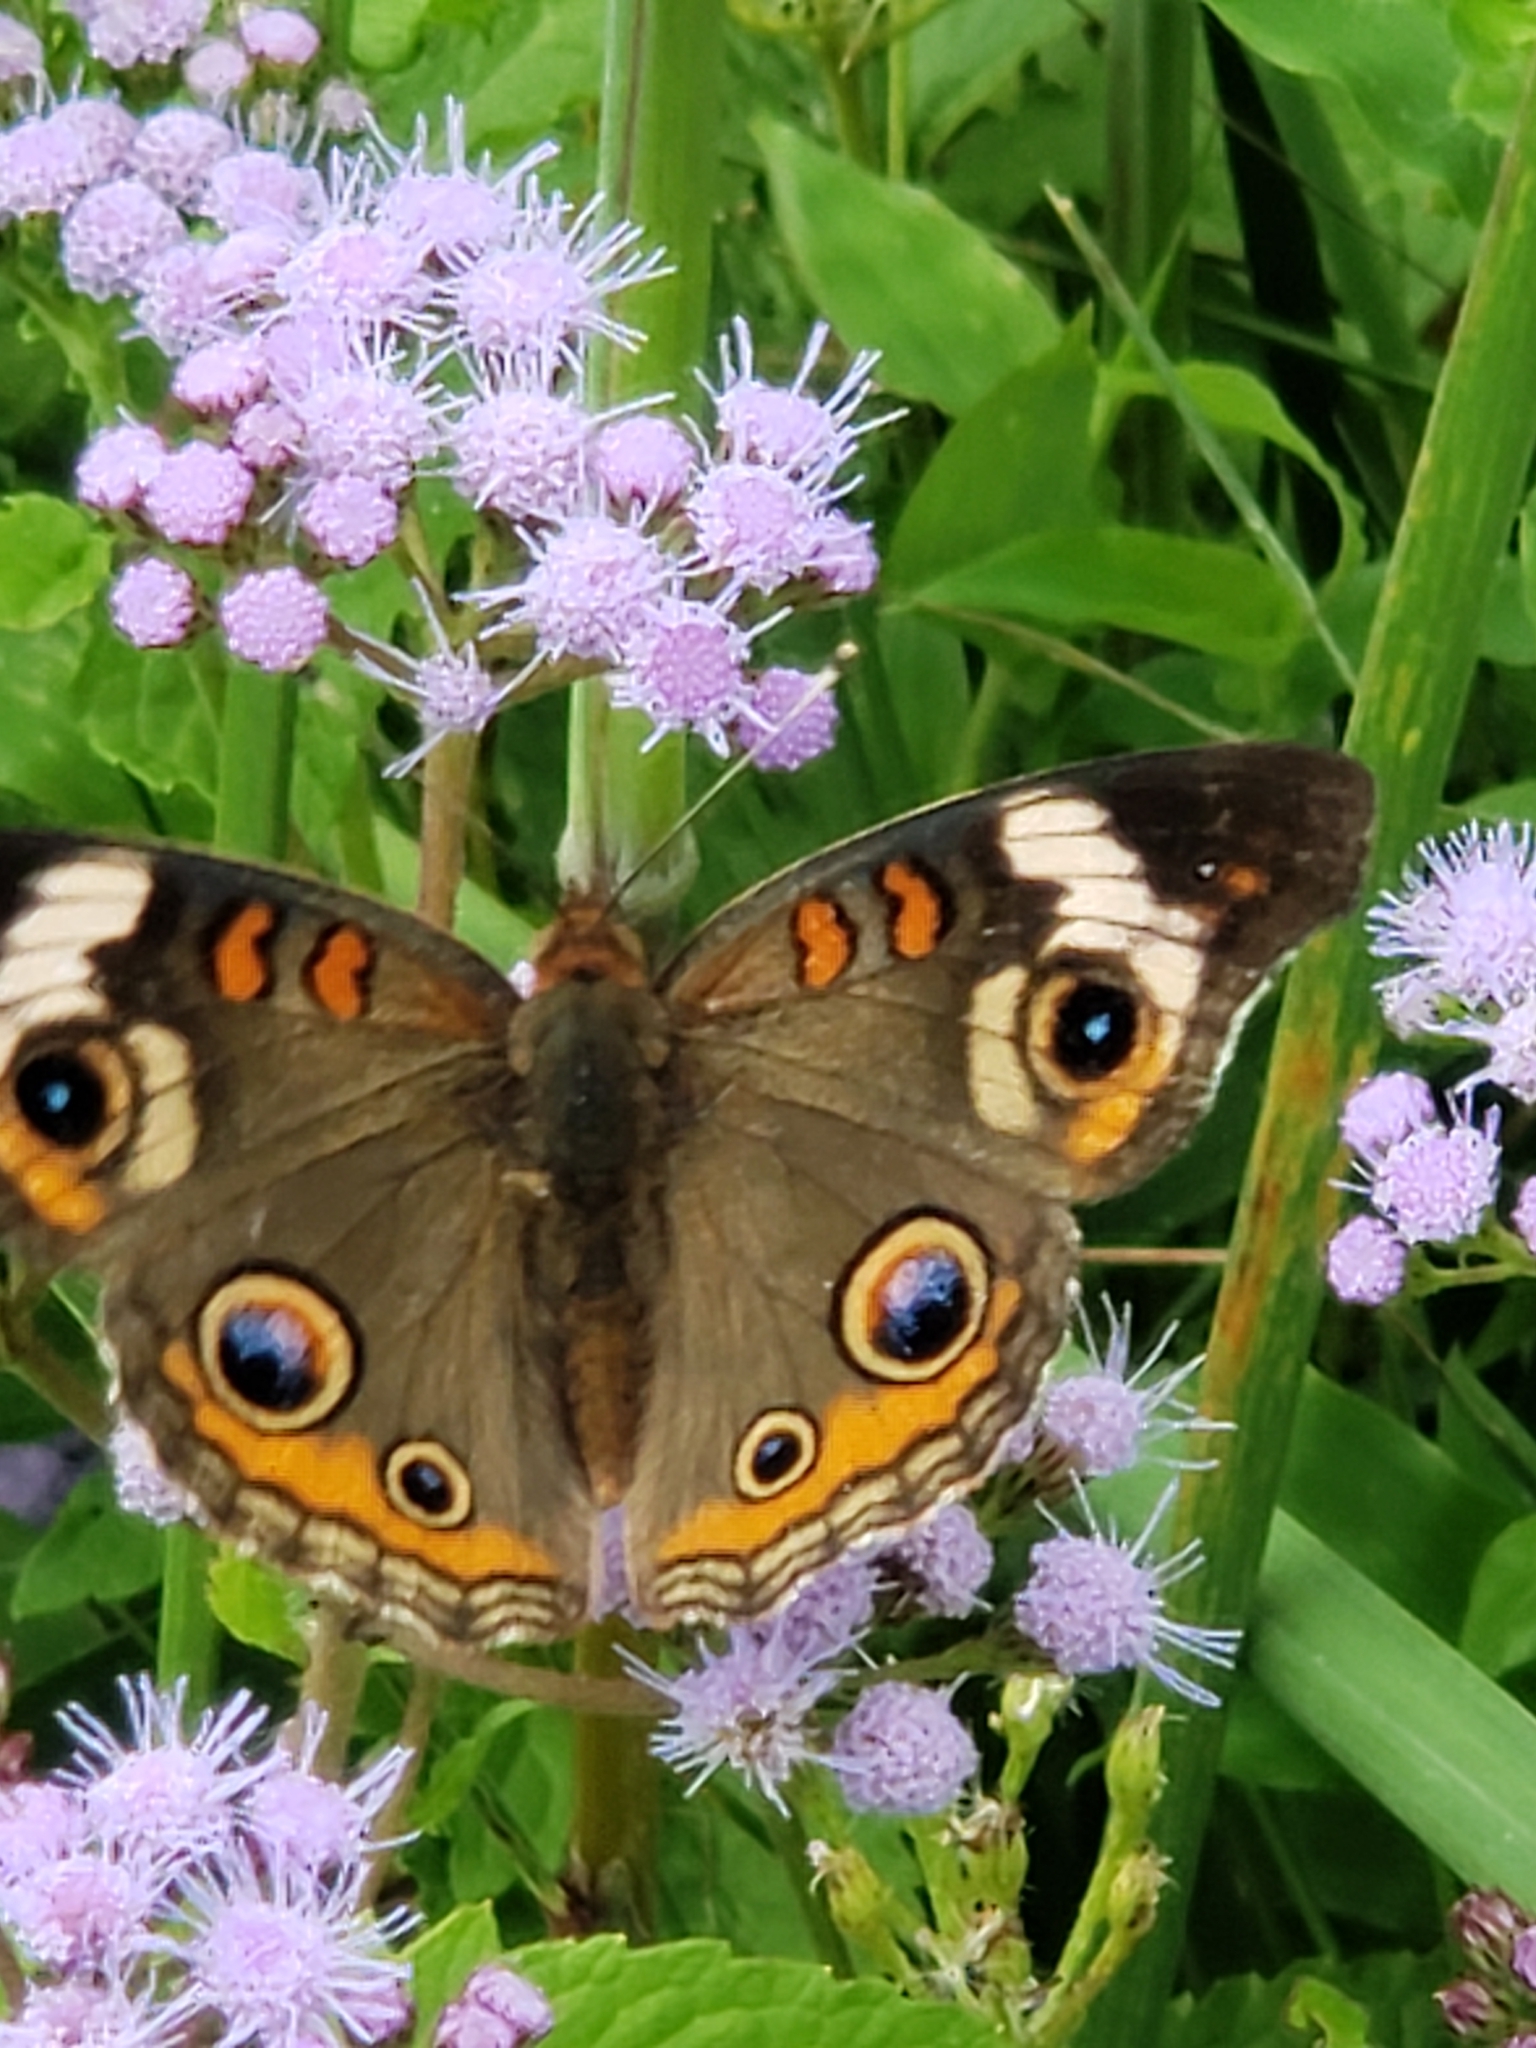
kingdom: Animalia
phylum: Arthropoda
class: Insecta
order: Lepidoptera
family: Nymphalidae
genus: Junonia
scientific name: Junonia coenia
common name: Common buckeye
